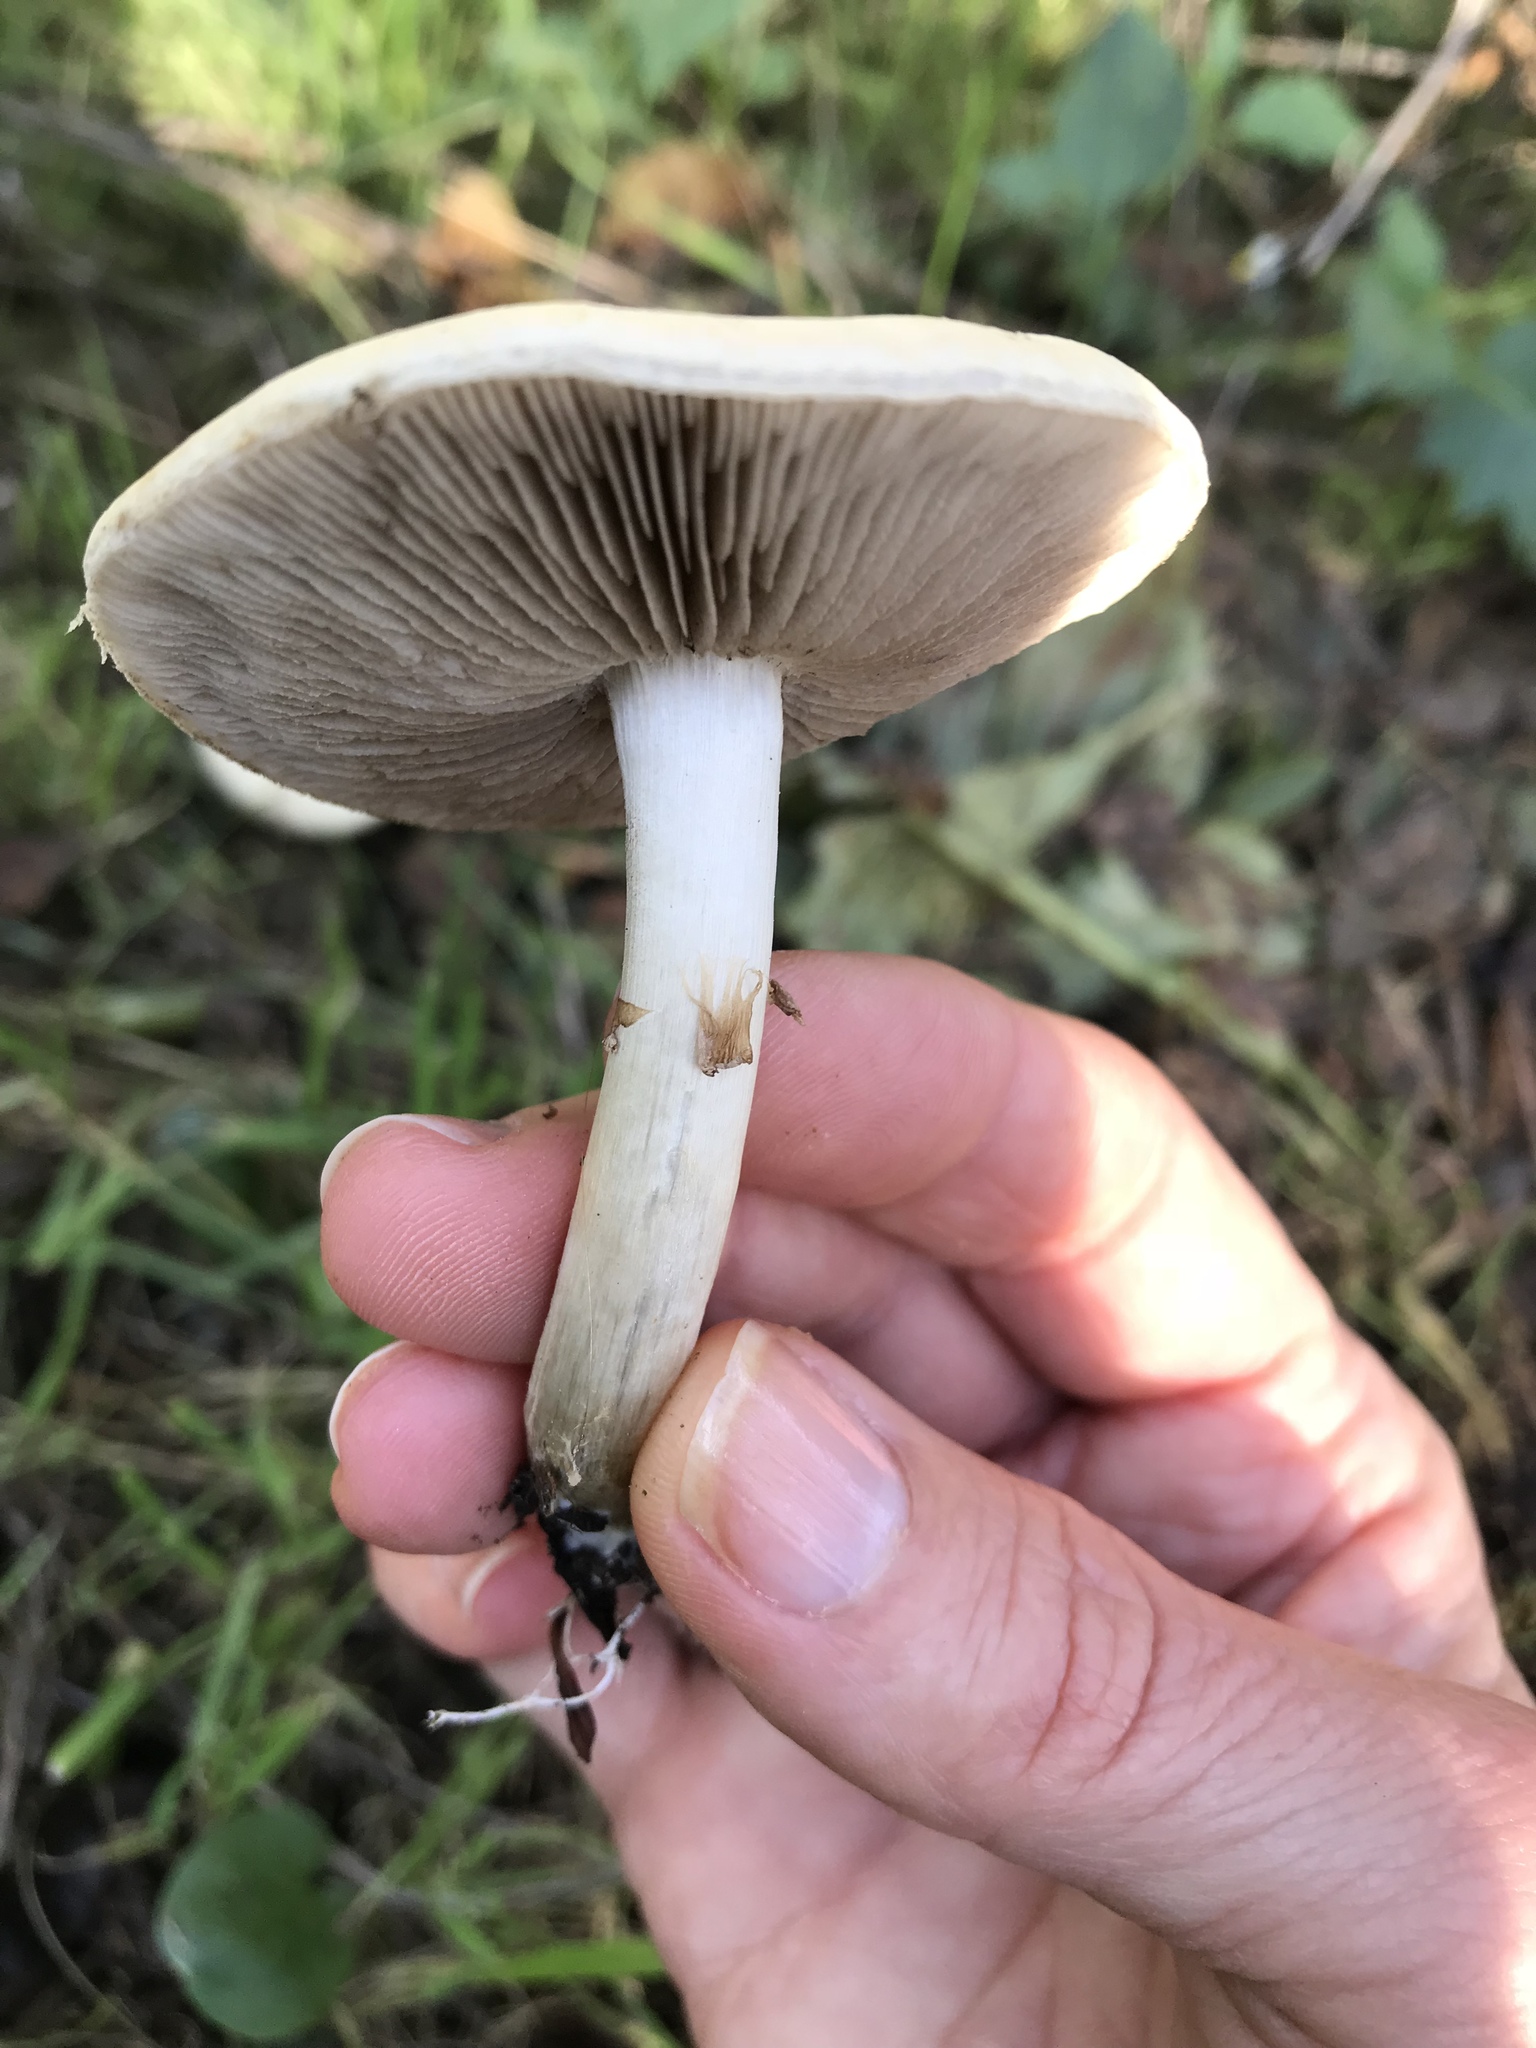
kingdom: Fungi
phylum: Basidiomycota
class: Agaricomycetes
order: Agaricales
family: Strophariaceae
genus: Agrocybe
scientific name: Agrocybe praecox
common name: Spring fieldcap
